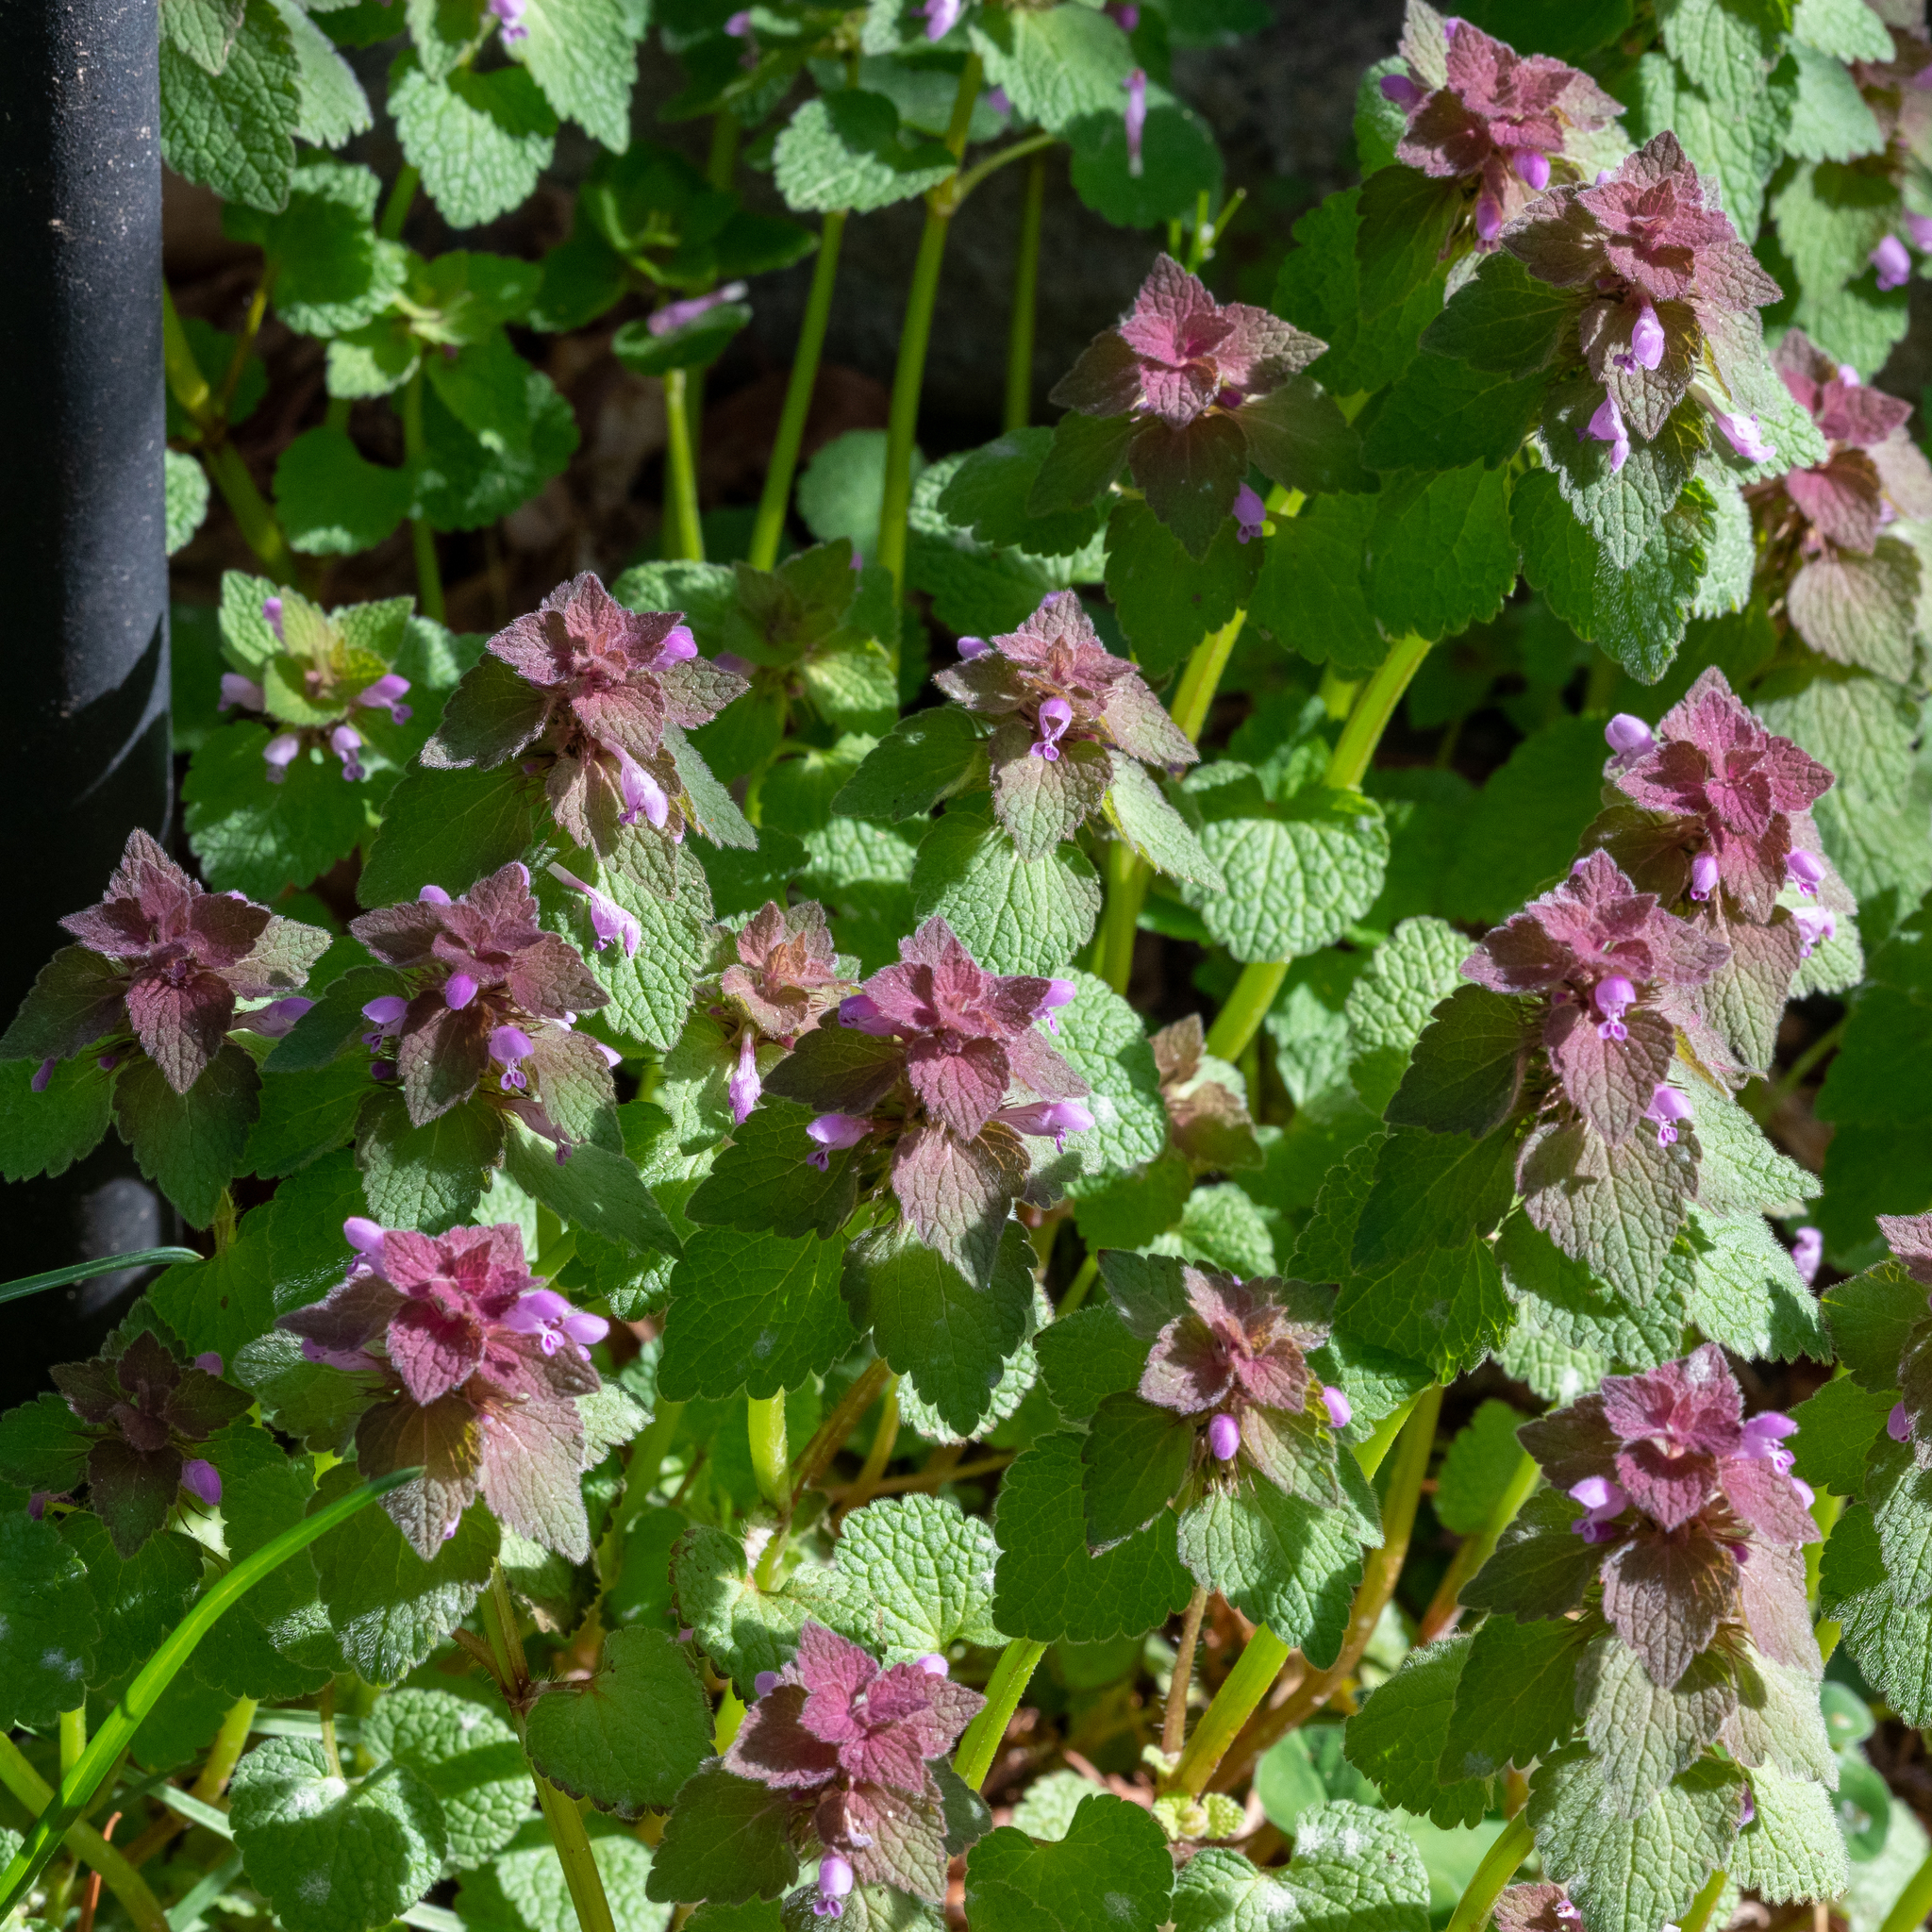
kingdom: Plantae
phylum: Tracheophyta
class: Magnoliopsida
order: Lamiales
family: Lamiaceae
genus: Lamium
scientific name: Lamium purpureum
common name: Red dead-nettle
